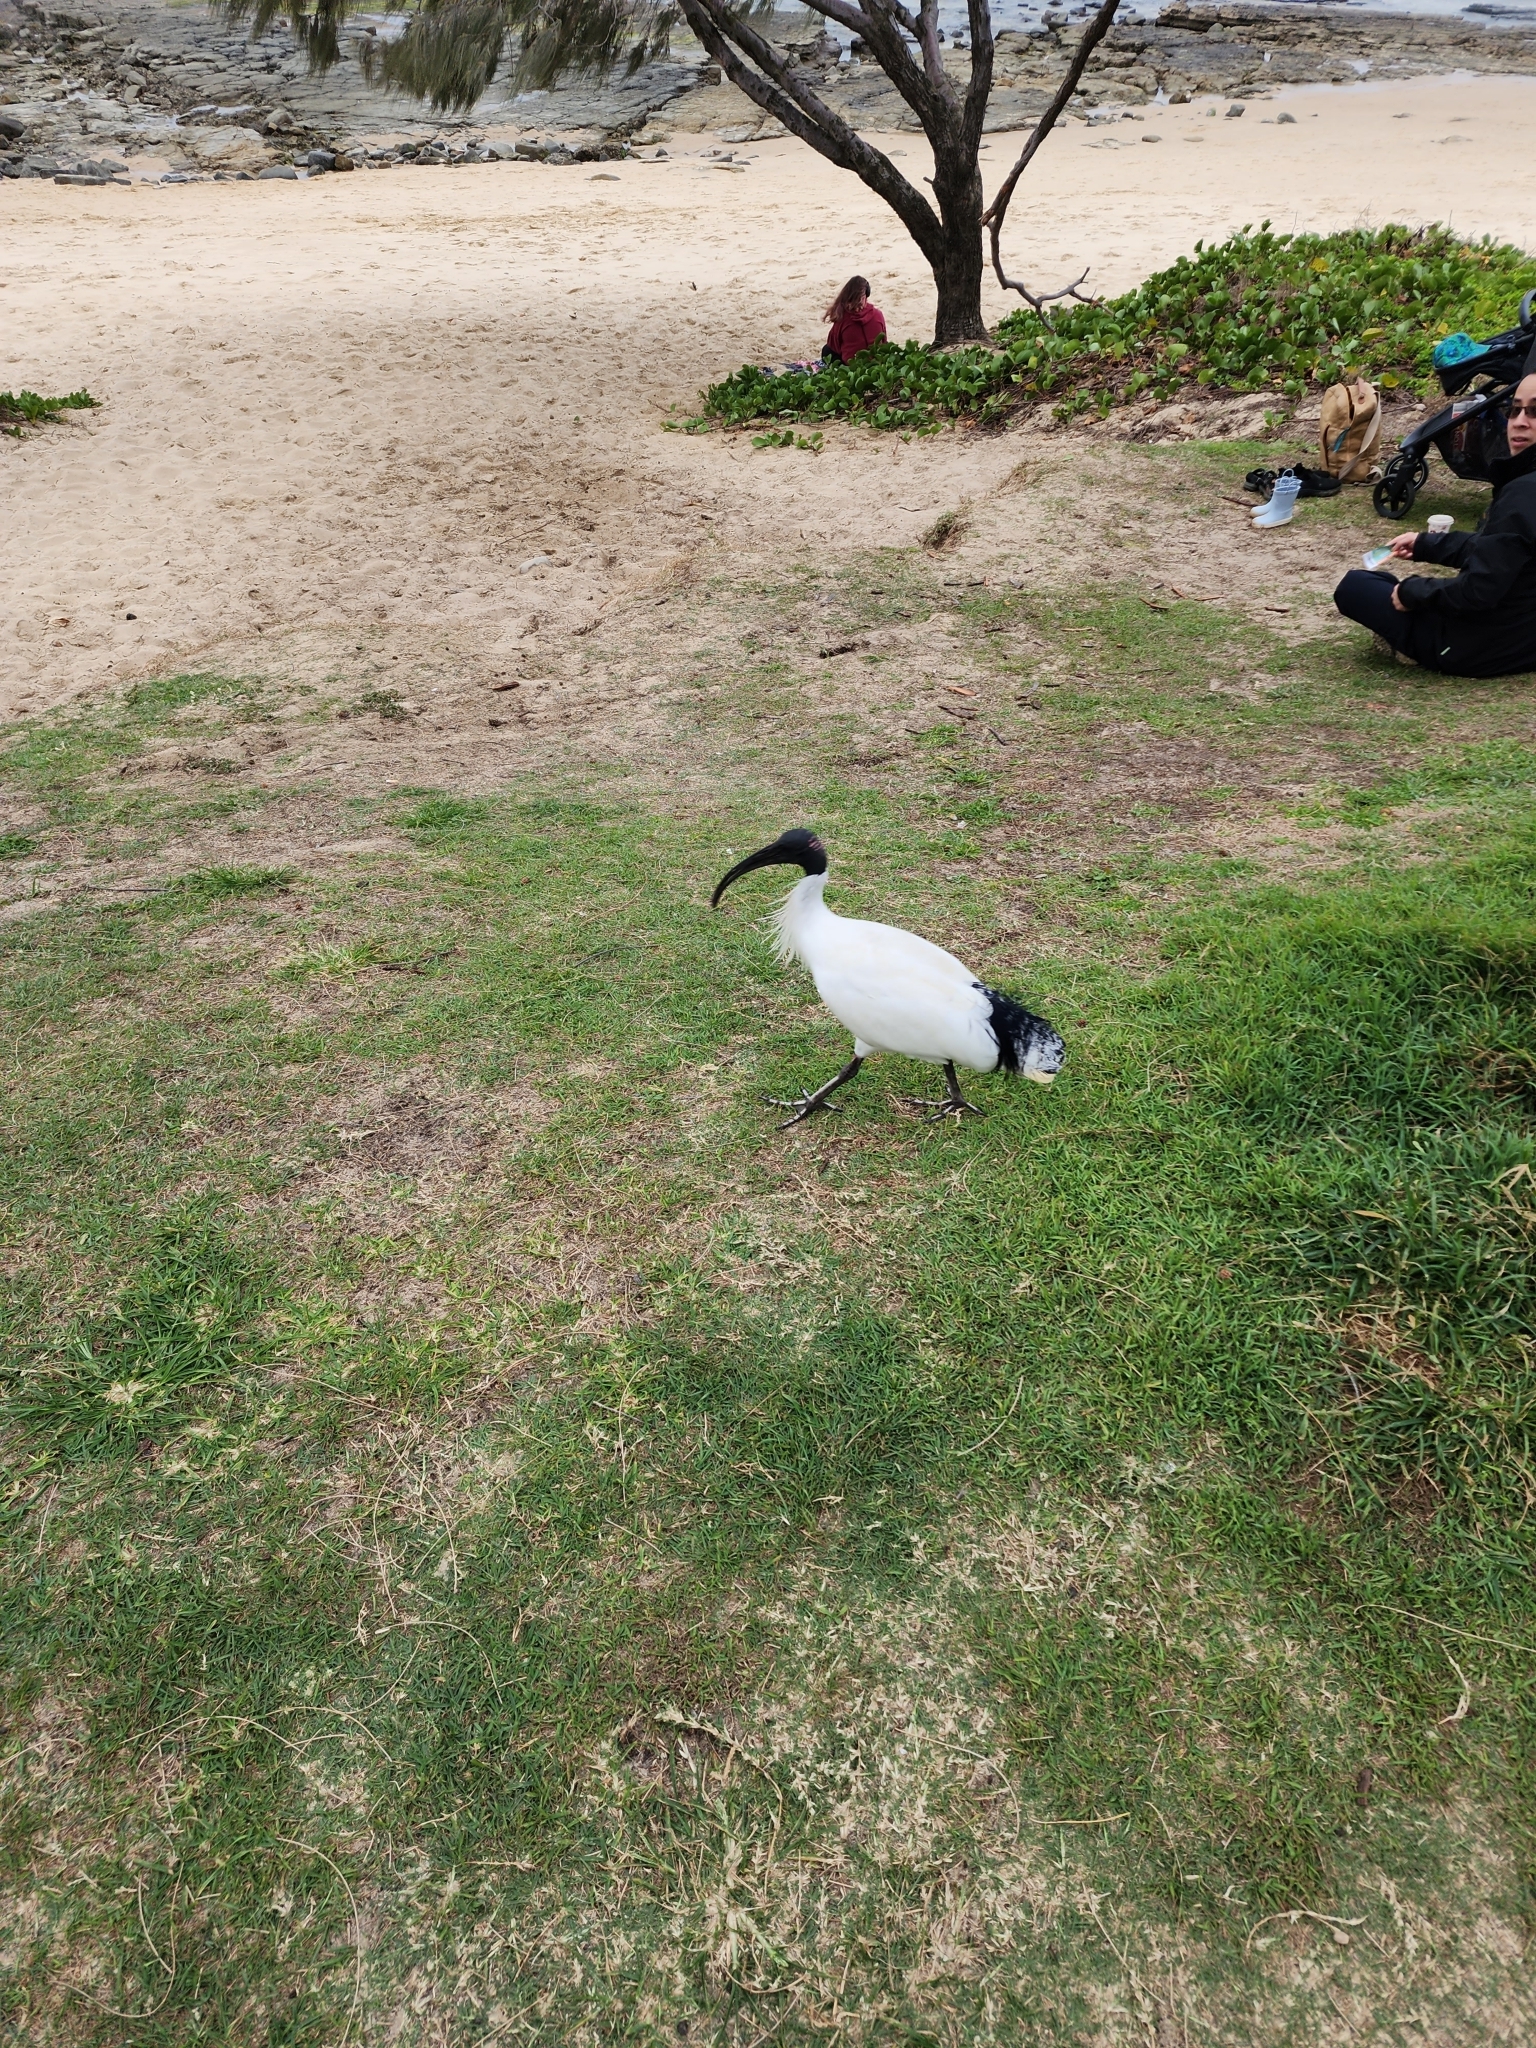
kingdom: Animalia
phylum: Chordata
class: Aves
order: Pelecaniformes
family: Threskiornithidae
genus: Threskiornis
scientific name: Threskiornis molucca
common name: Australian white ibis
